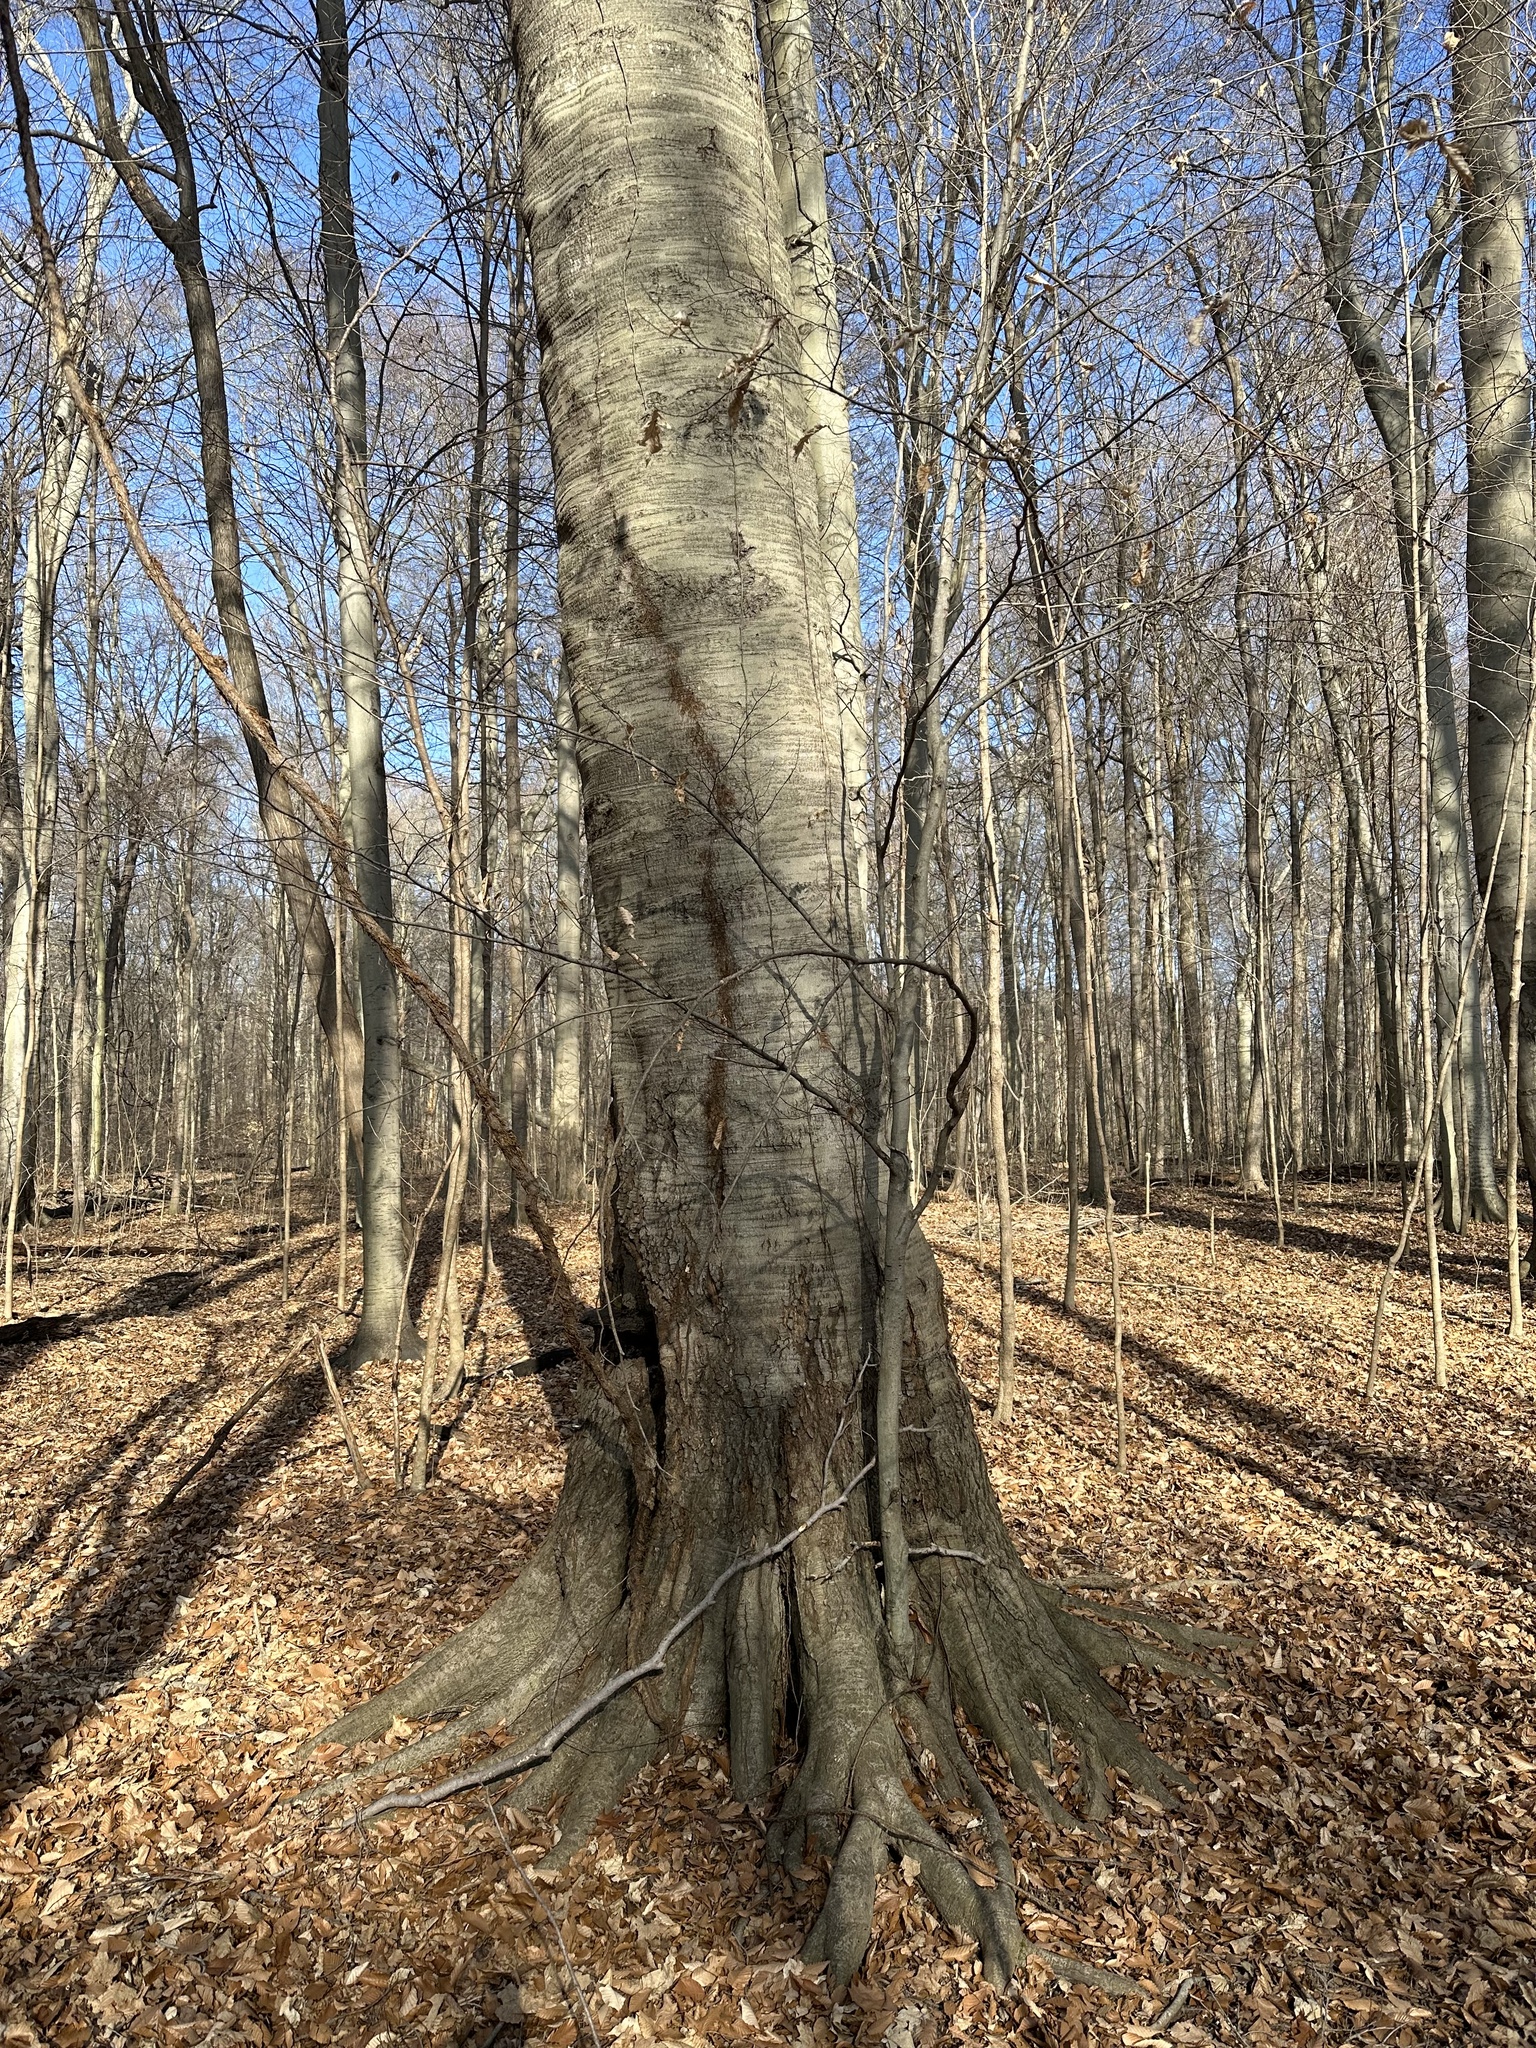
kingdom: Plantae
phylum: Tracheophyta
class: Magnoliopsida
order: Sapindales
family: Anacardiaceae
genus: Toxicodendron
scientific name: Toxicodendron radicans
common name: Poison ivy
